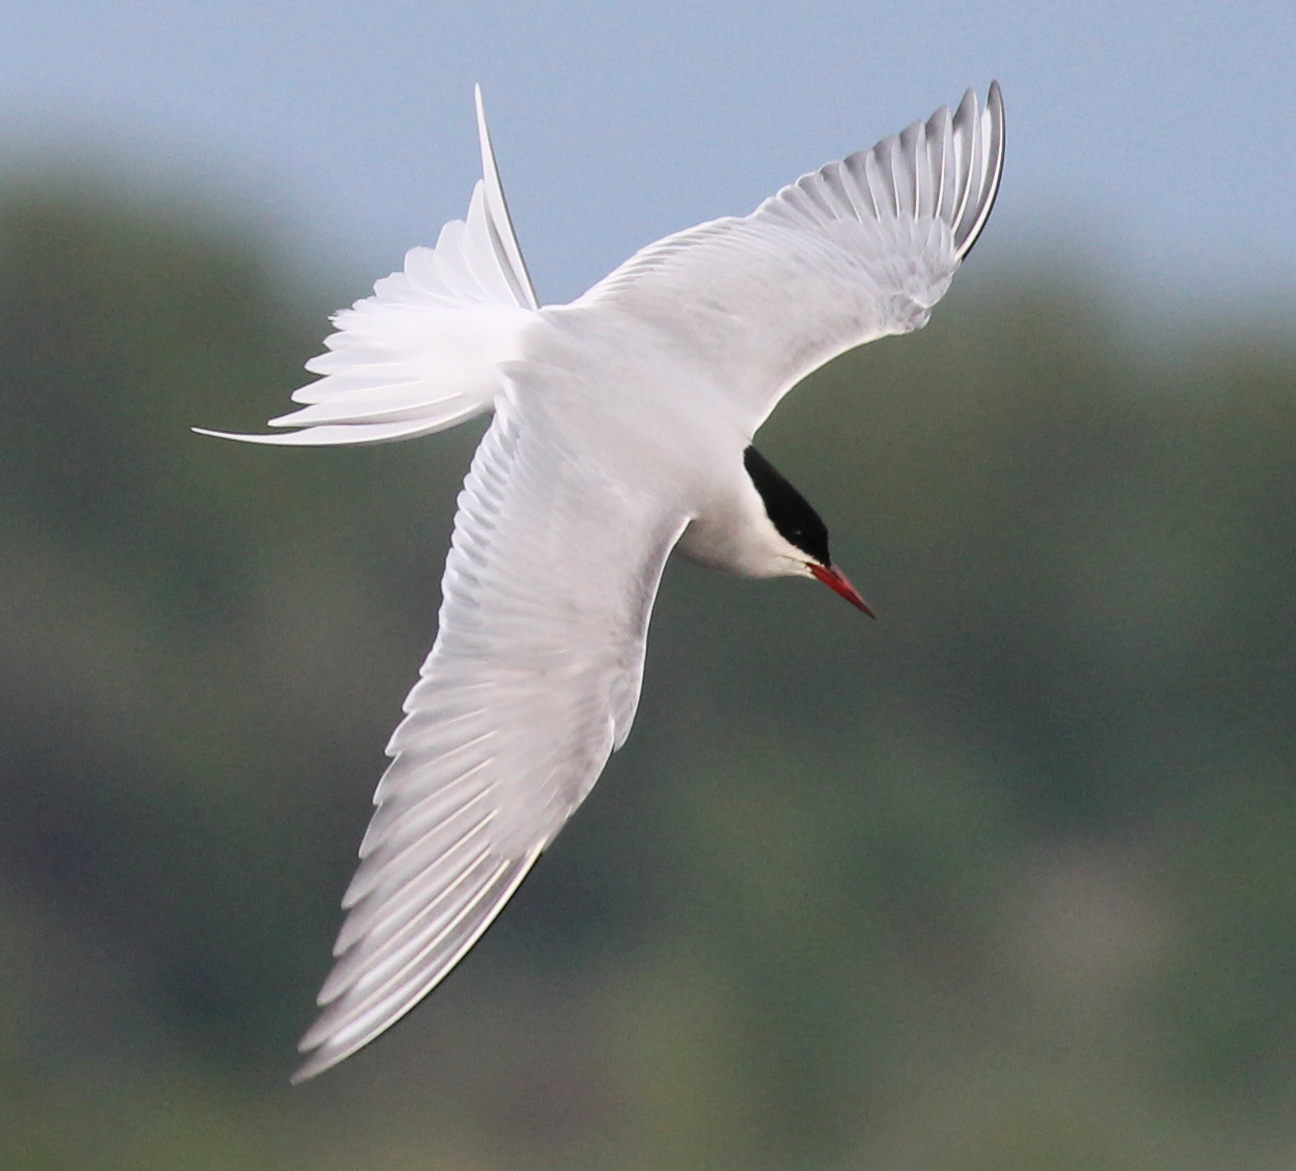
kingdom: Animalia
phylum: Chordata
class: Aves
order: Charadriiformes
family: Laridae
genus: Sterna
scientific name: Sterna paradisaea
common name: Arctic tern
